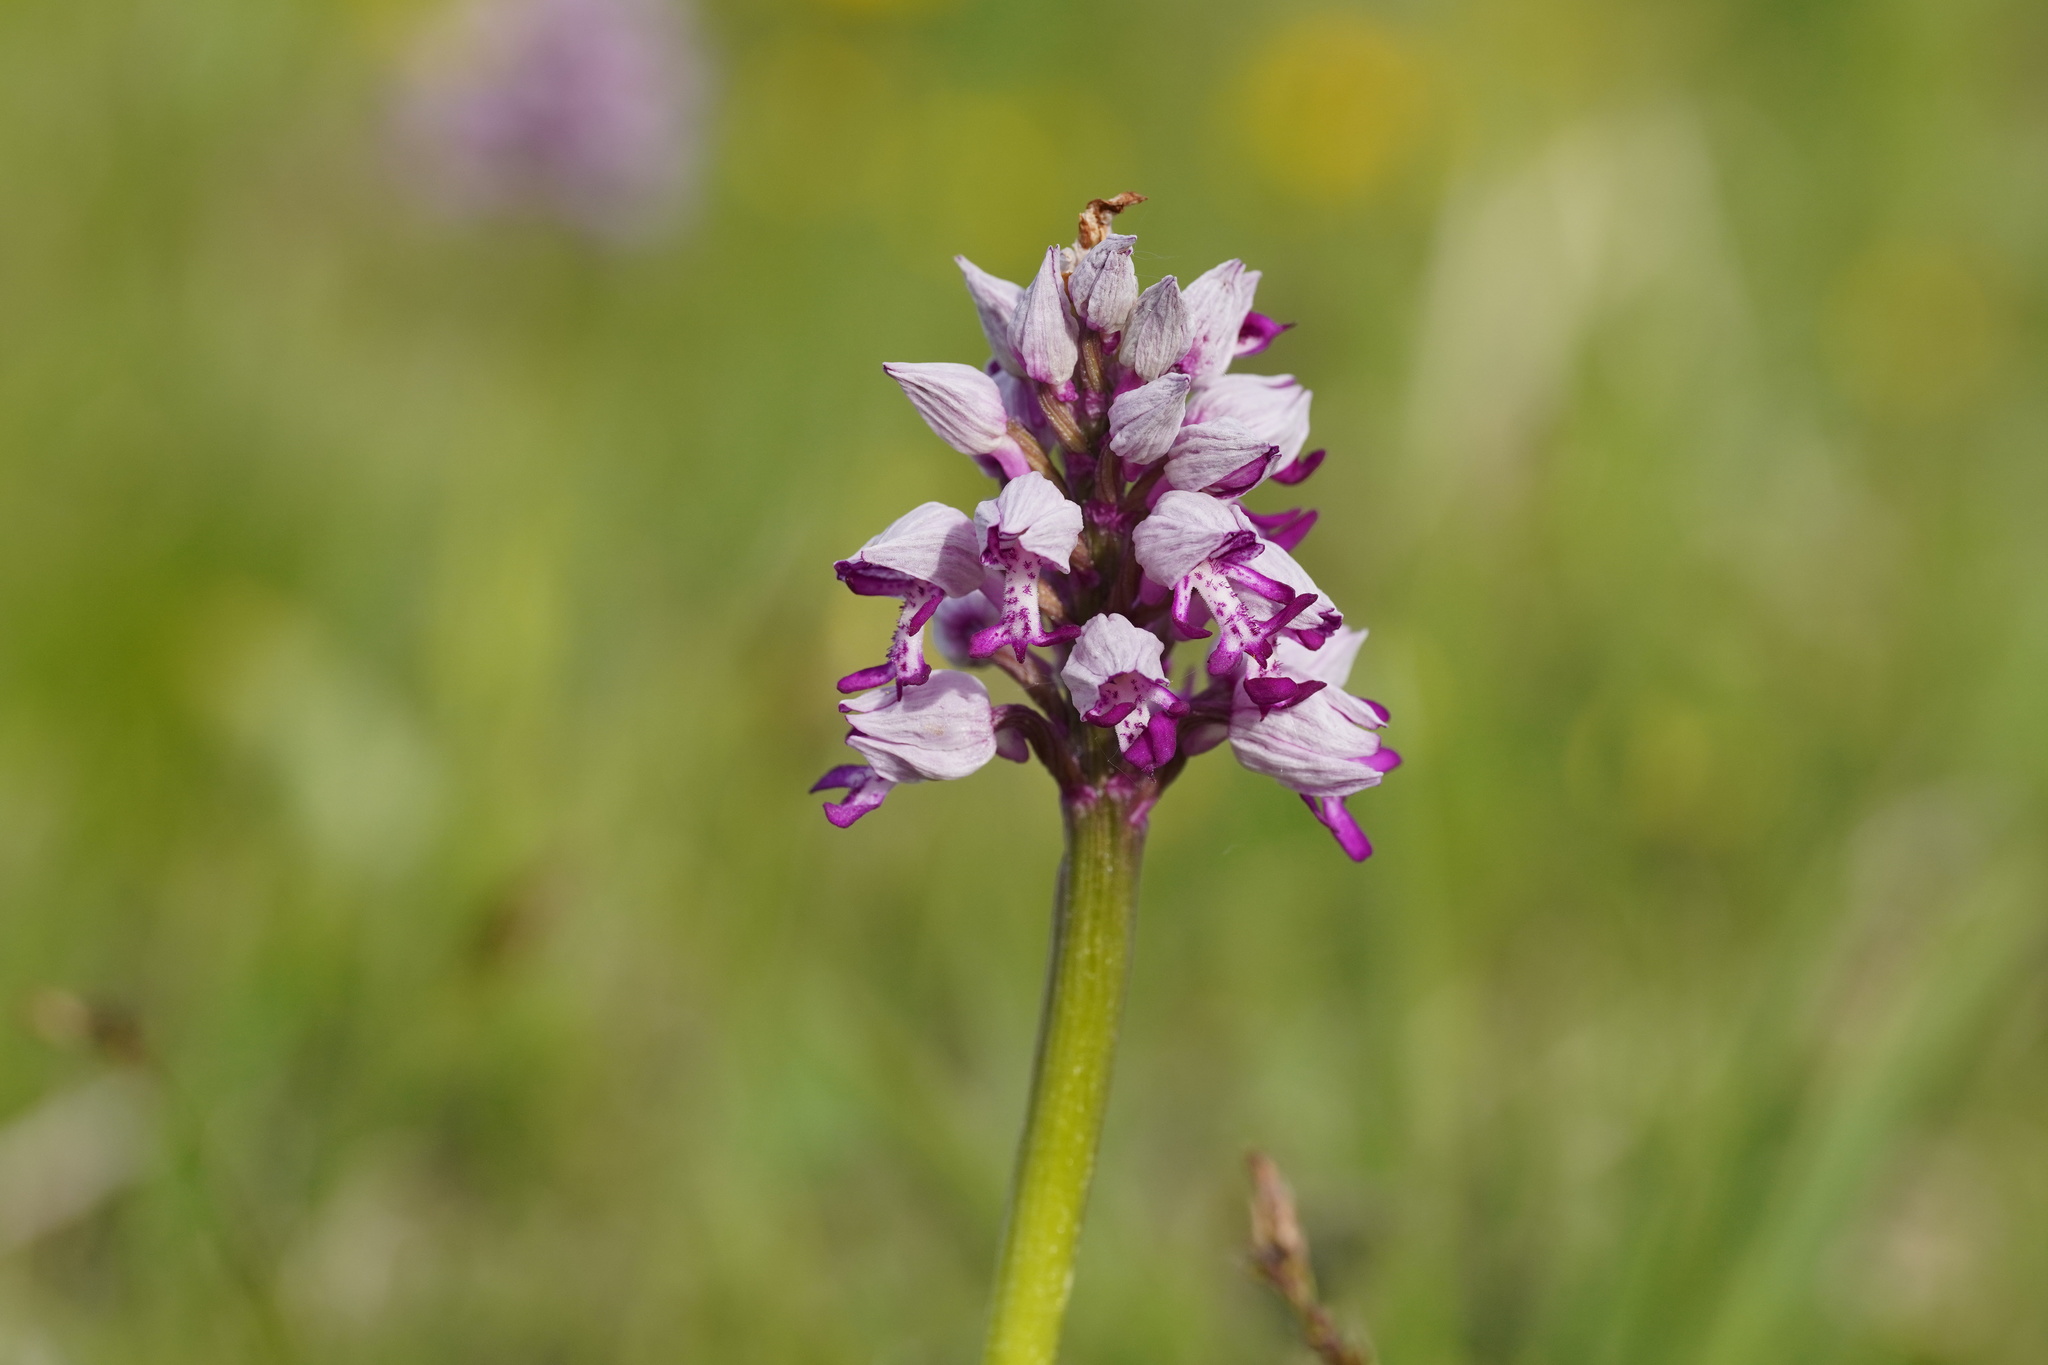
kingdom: Plantae
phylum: Tracheophyta
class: Liliopsida
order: Asparagales
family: Orchidaceae
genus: Orchis
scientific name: Orchis militaris
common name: Military orchid
